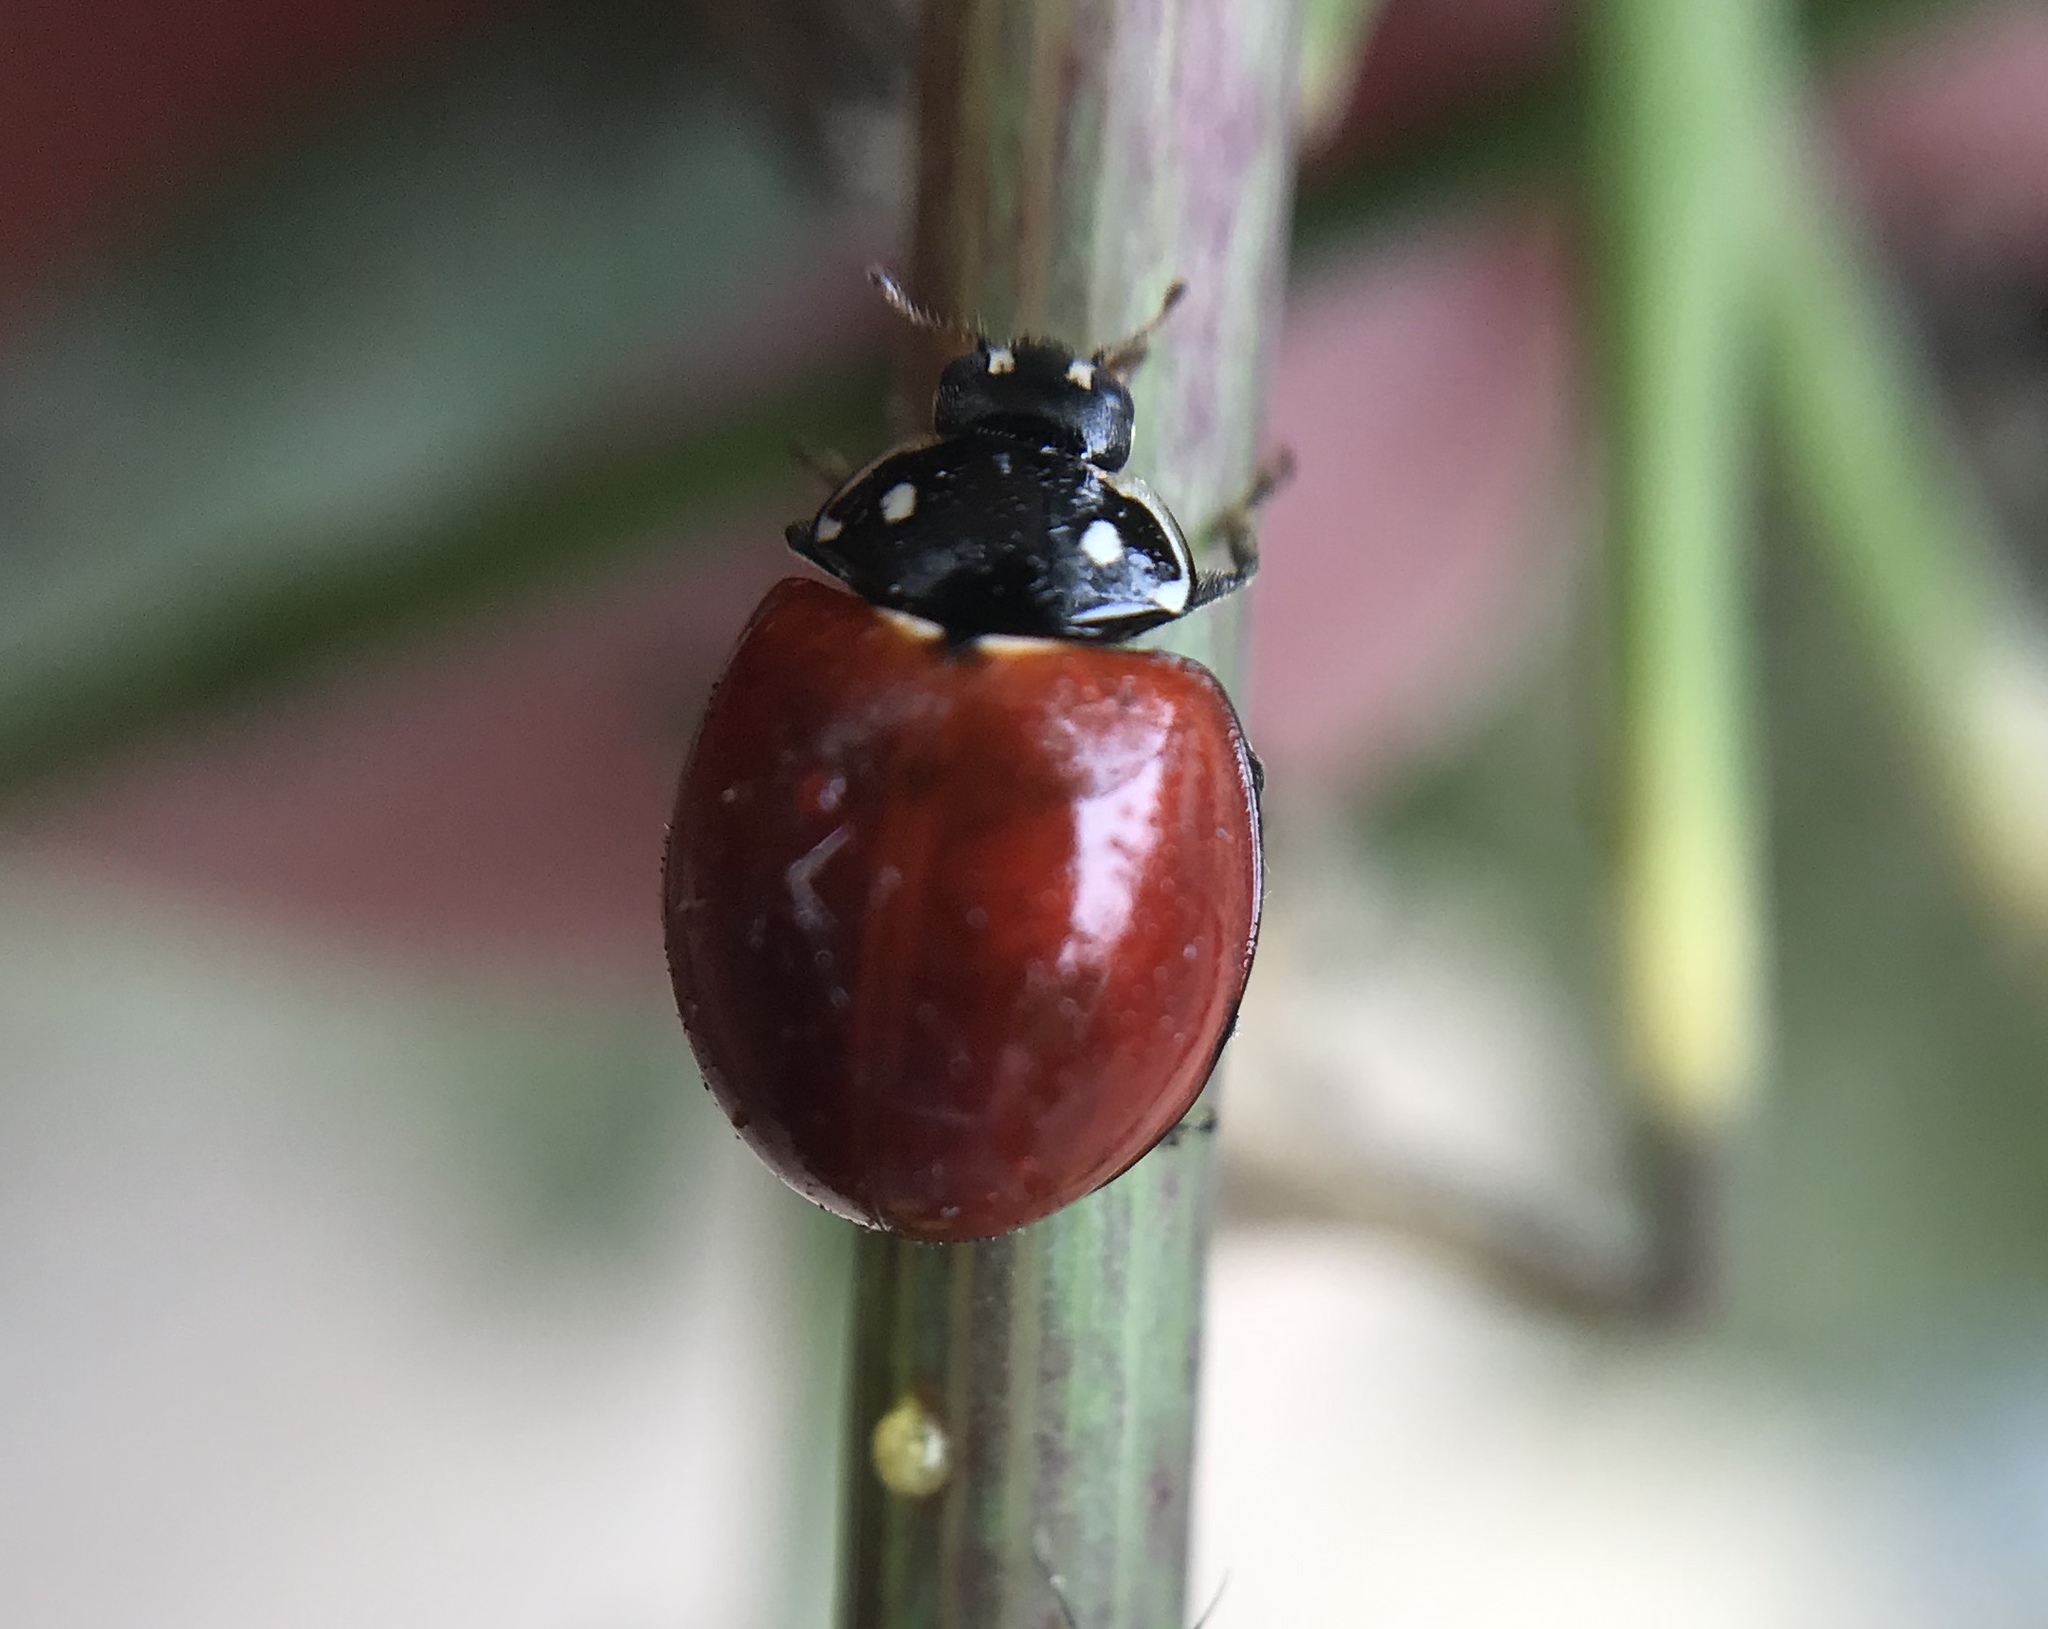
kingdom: Animalia
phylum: Arthropoda
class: Insecta
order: Coleoptera
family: Coccinellidae
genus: Cycloneda
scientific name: Cycloneda sanguinea
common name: Ladybird beetle
